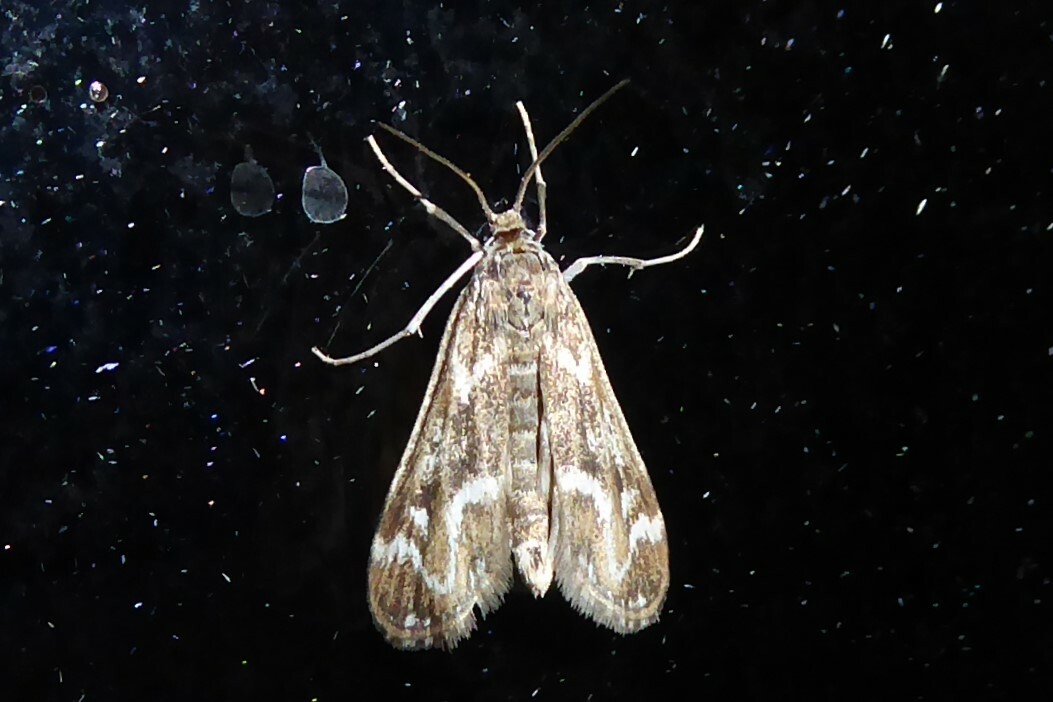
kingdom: Animalia
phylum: Arthropoda
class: Insecta
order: Lepidoptera
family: Crambidae
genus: Hygraula
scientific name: Hygraula nitens
